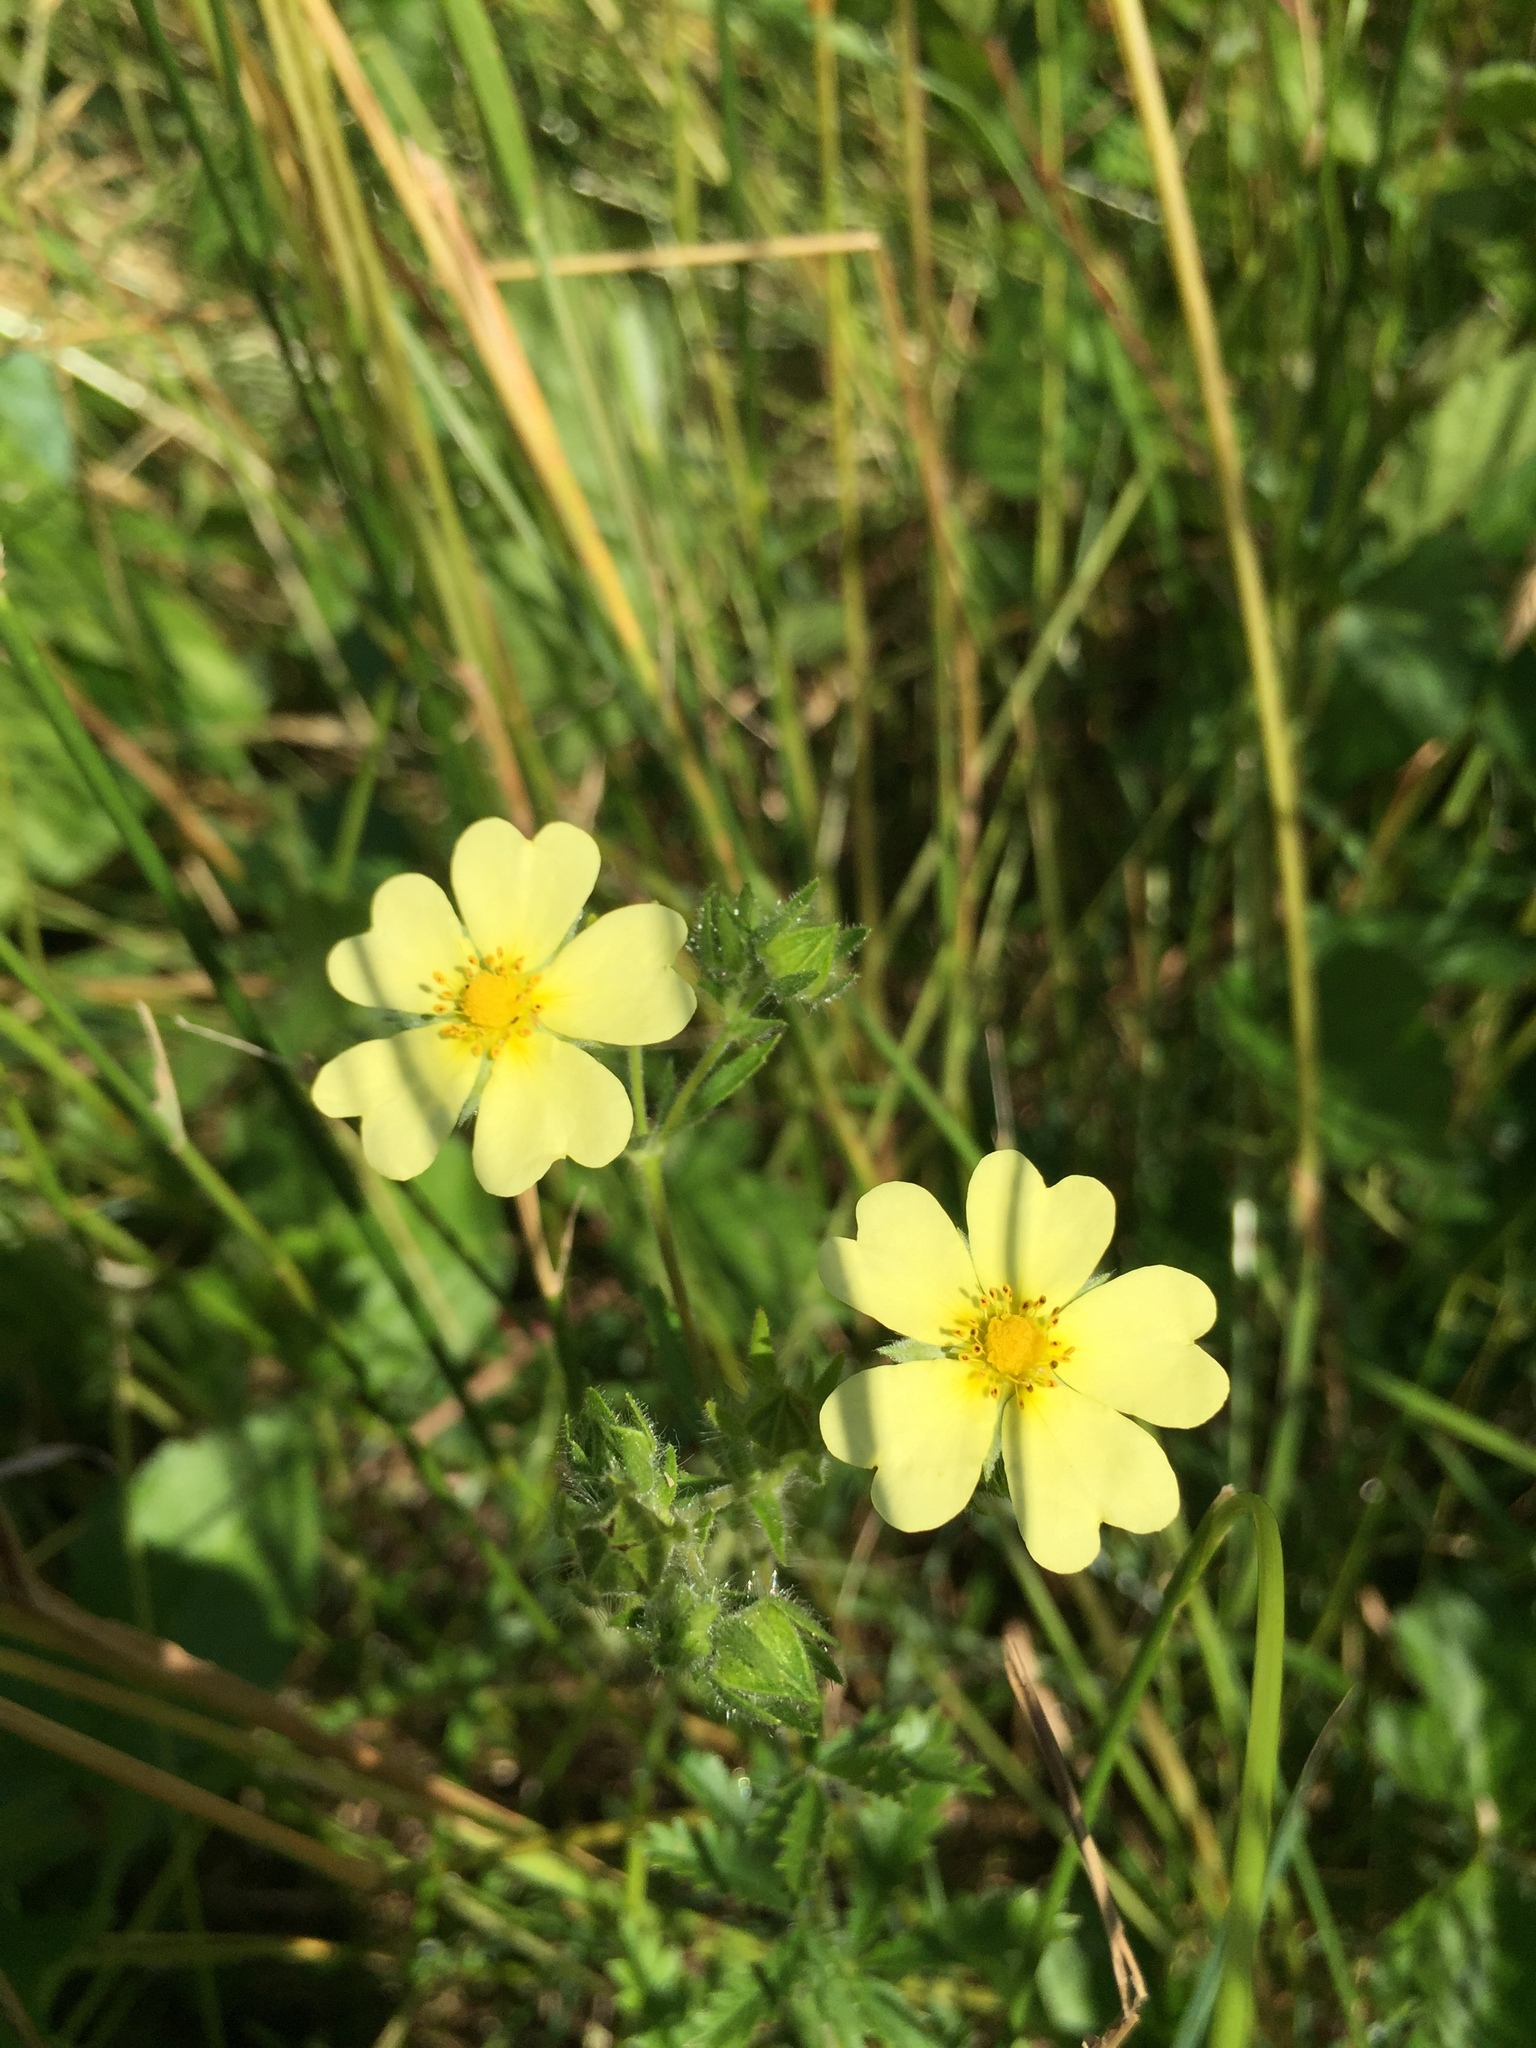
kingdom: Plantae
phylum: Tracheophyta
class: Magnoliopsida
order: Rosales
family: Rosaceae
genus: Potentilla
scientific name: Potentilla recta
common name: Sulphur cinquefoil
